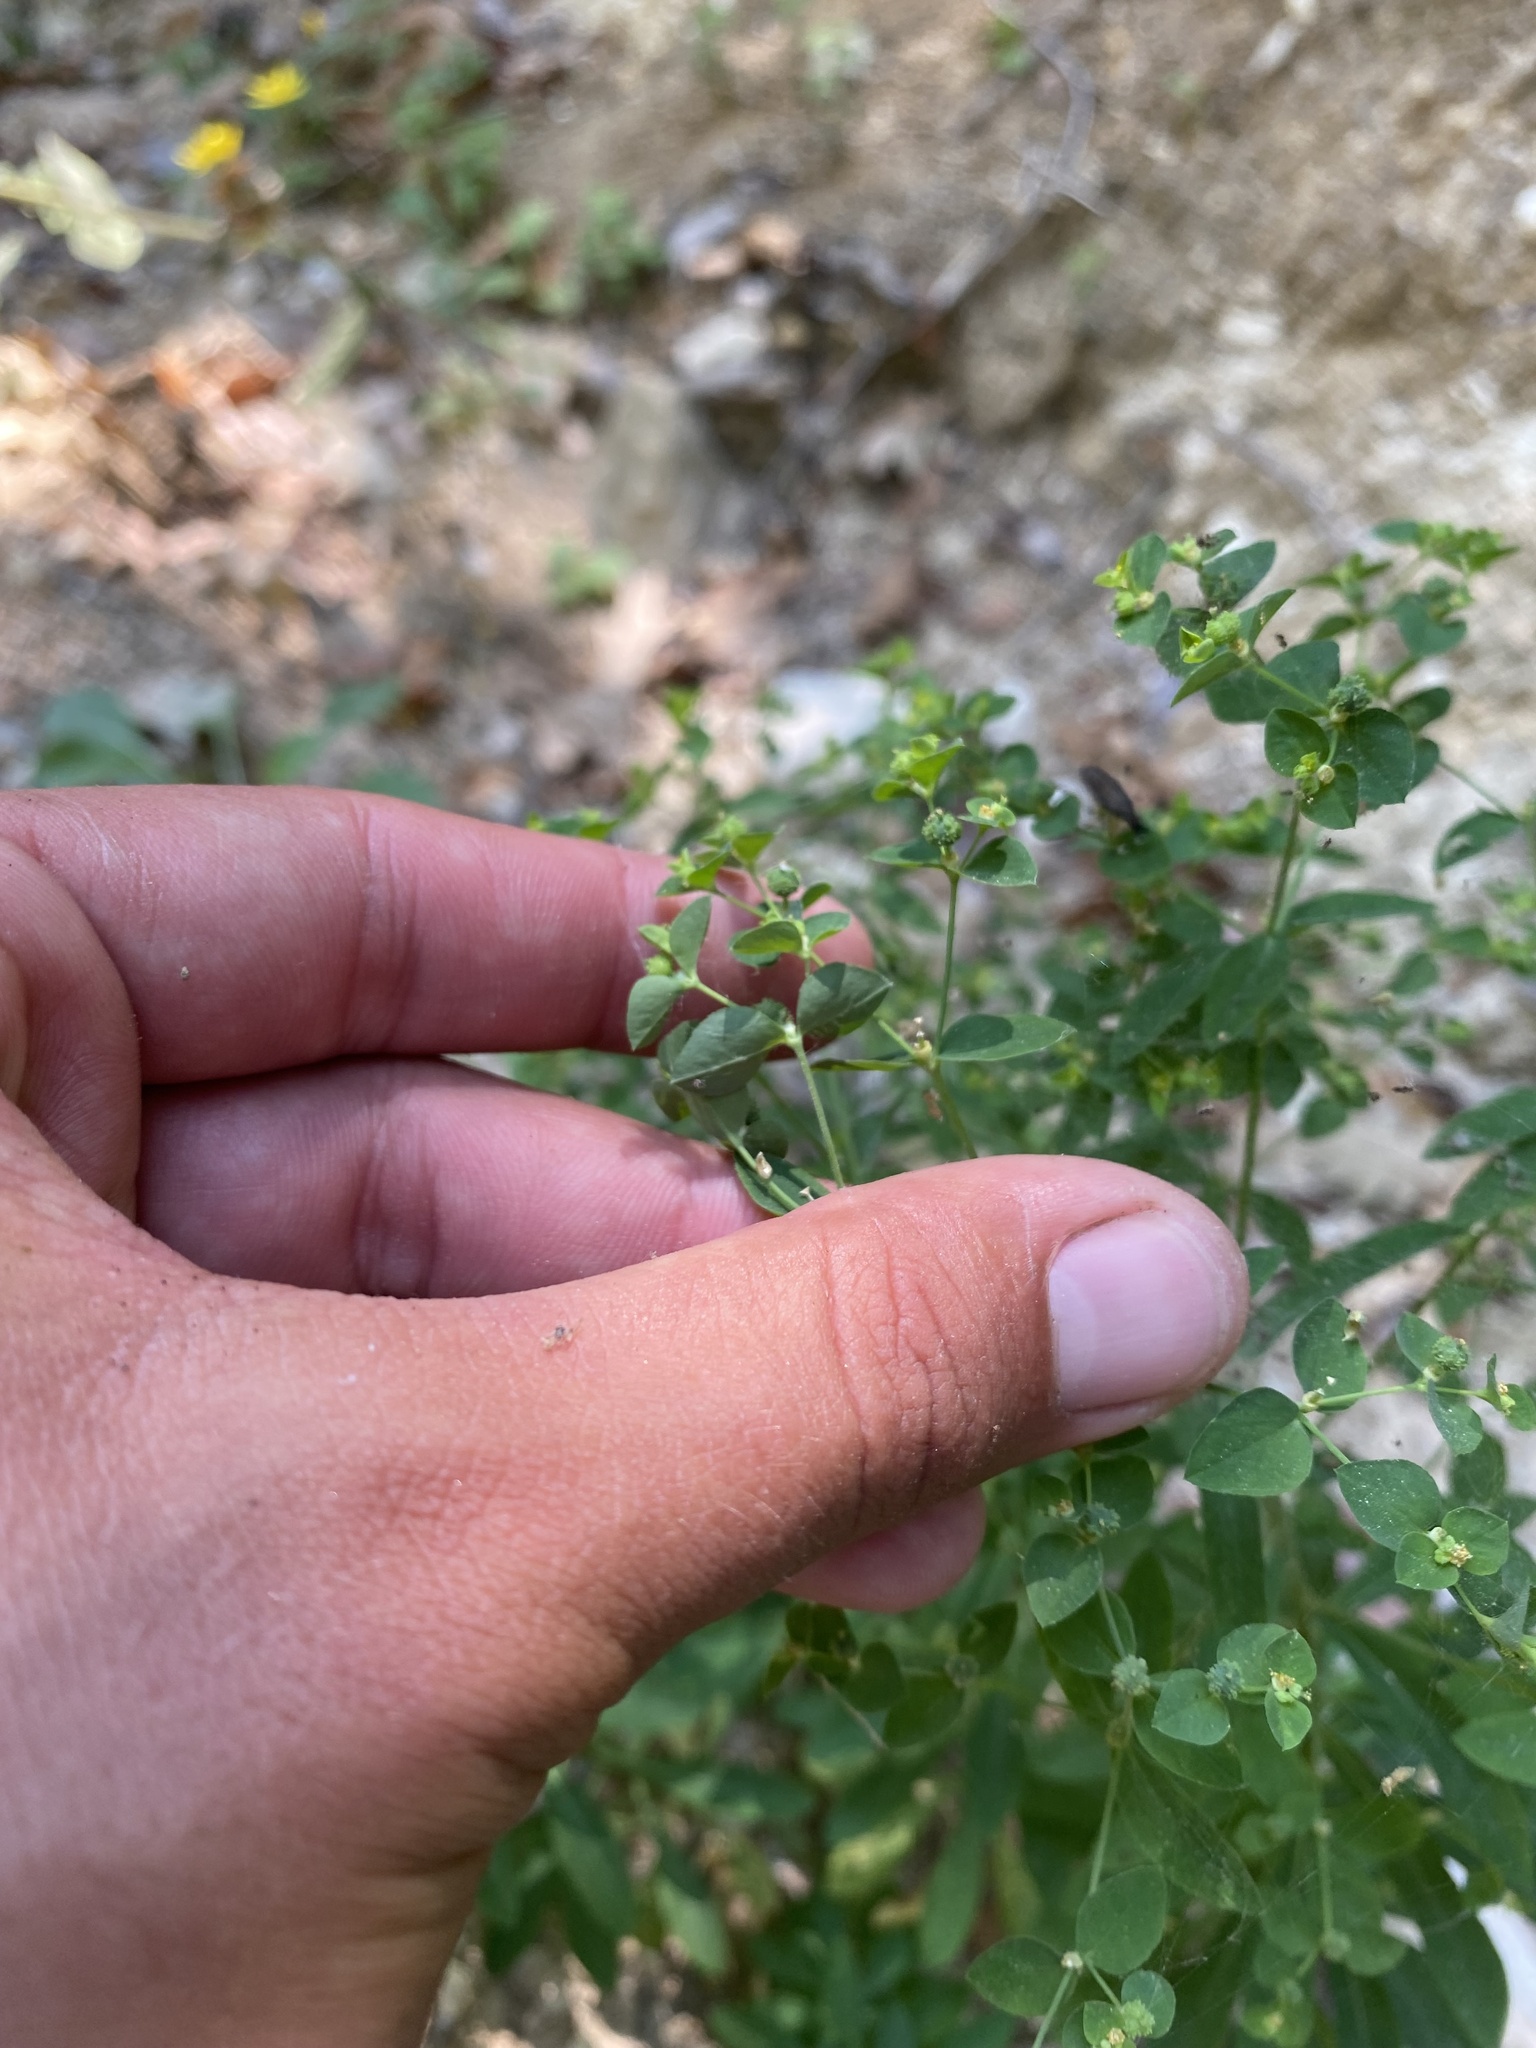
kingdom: Plantae
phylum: Tracheophyta
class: Magnoliopsida
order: Malpighiales
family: Euphorbiaceae
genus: Euphorbia
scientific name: Euphorbia stricta
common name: Upright spurge
